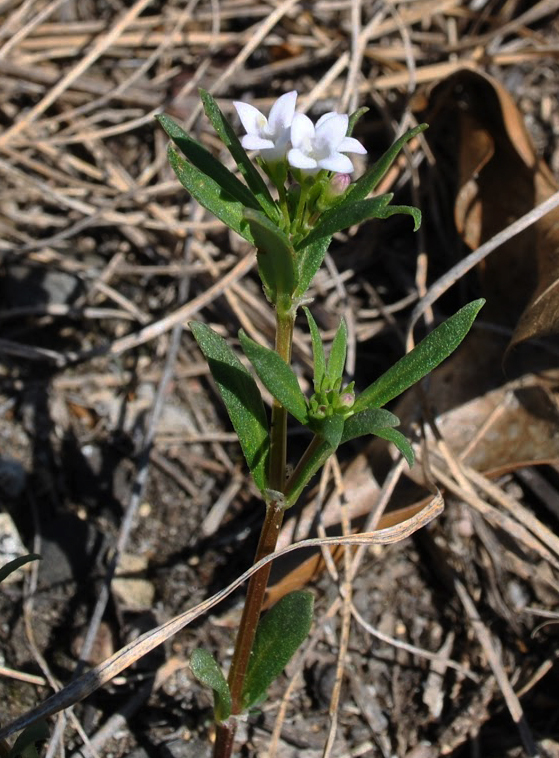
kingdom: Plantae
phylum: Tracheophyta
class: Magnoliopsida
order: Gentianales
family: Rubiaceae
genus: Houstonia
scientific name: Houstonia longifolia
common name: Long-leaved bluets
